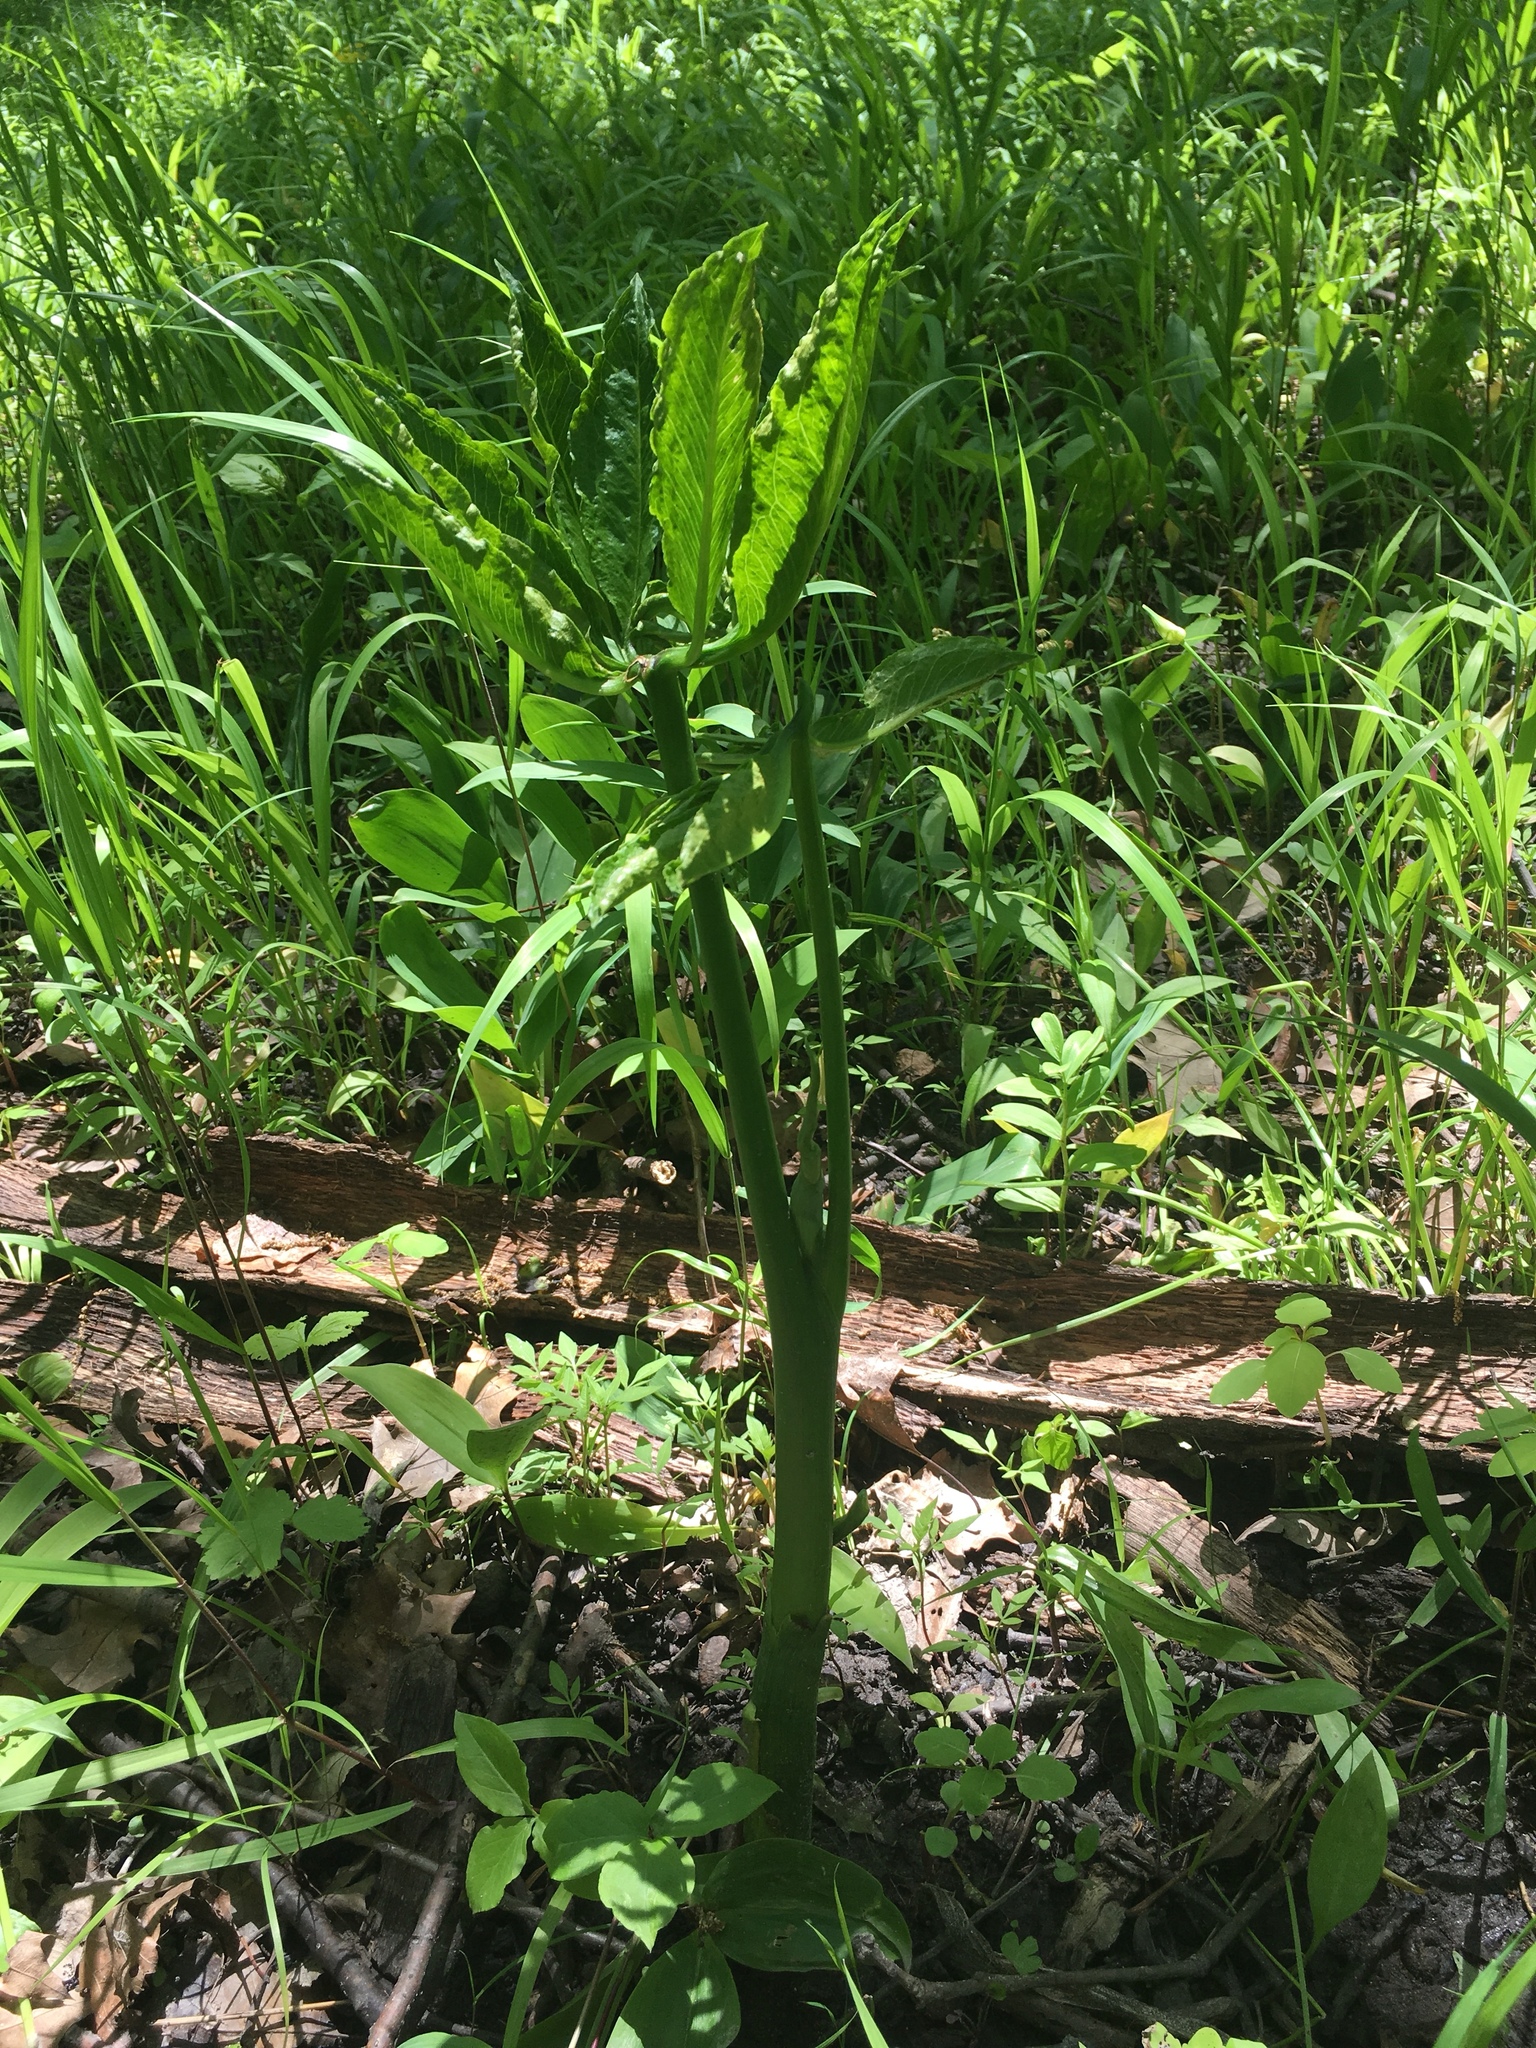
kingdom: Plantae
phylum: Tracheophyta
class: Liliopsida
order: Alismatales
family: Araceae
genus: Arisaema
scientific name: Arisaema dracontium
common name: Dragon-arum
